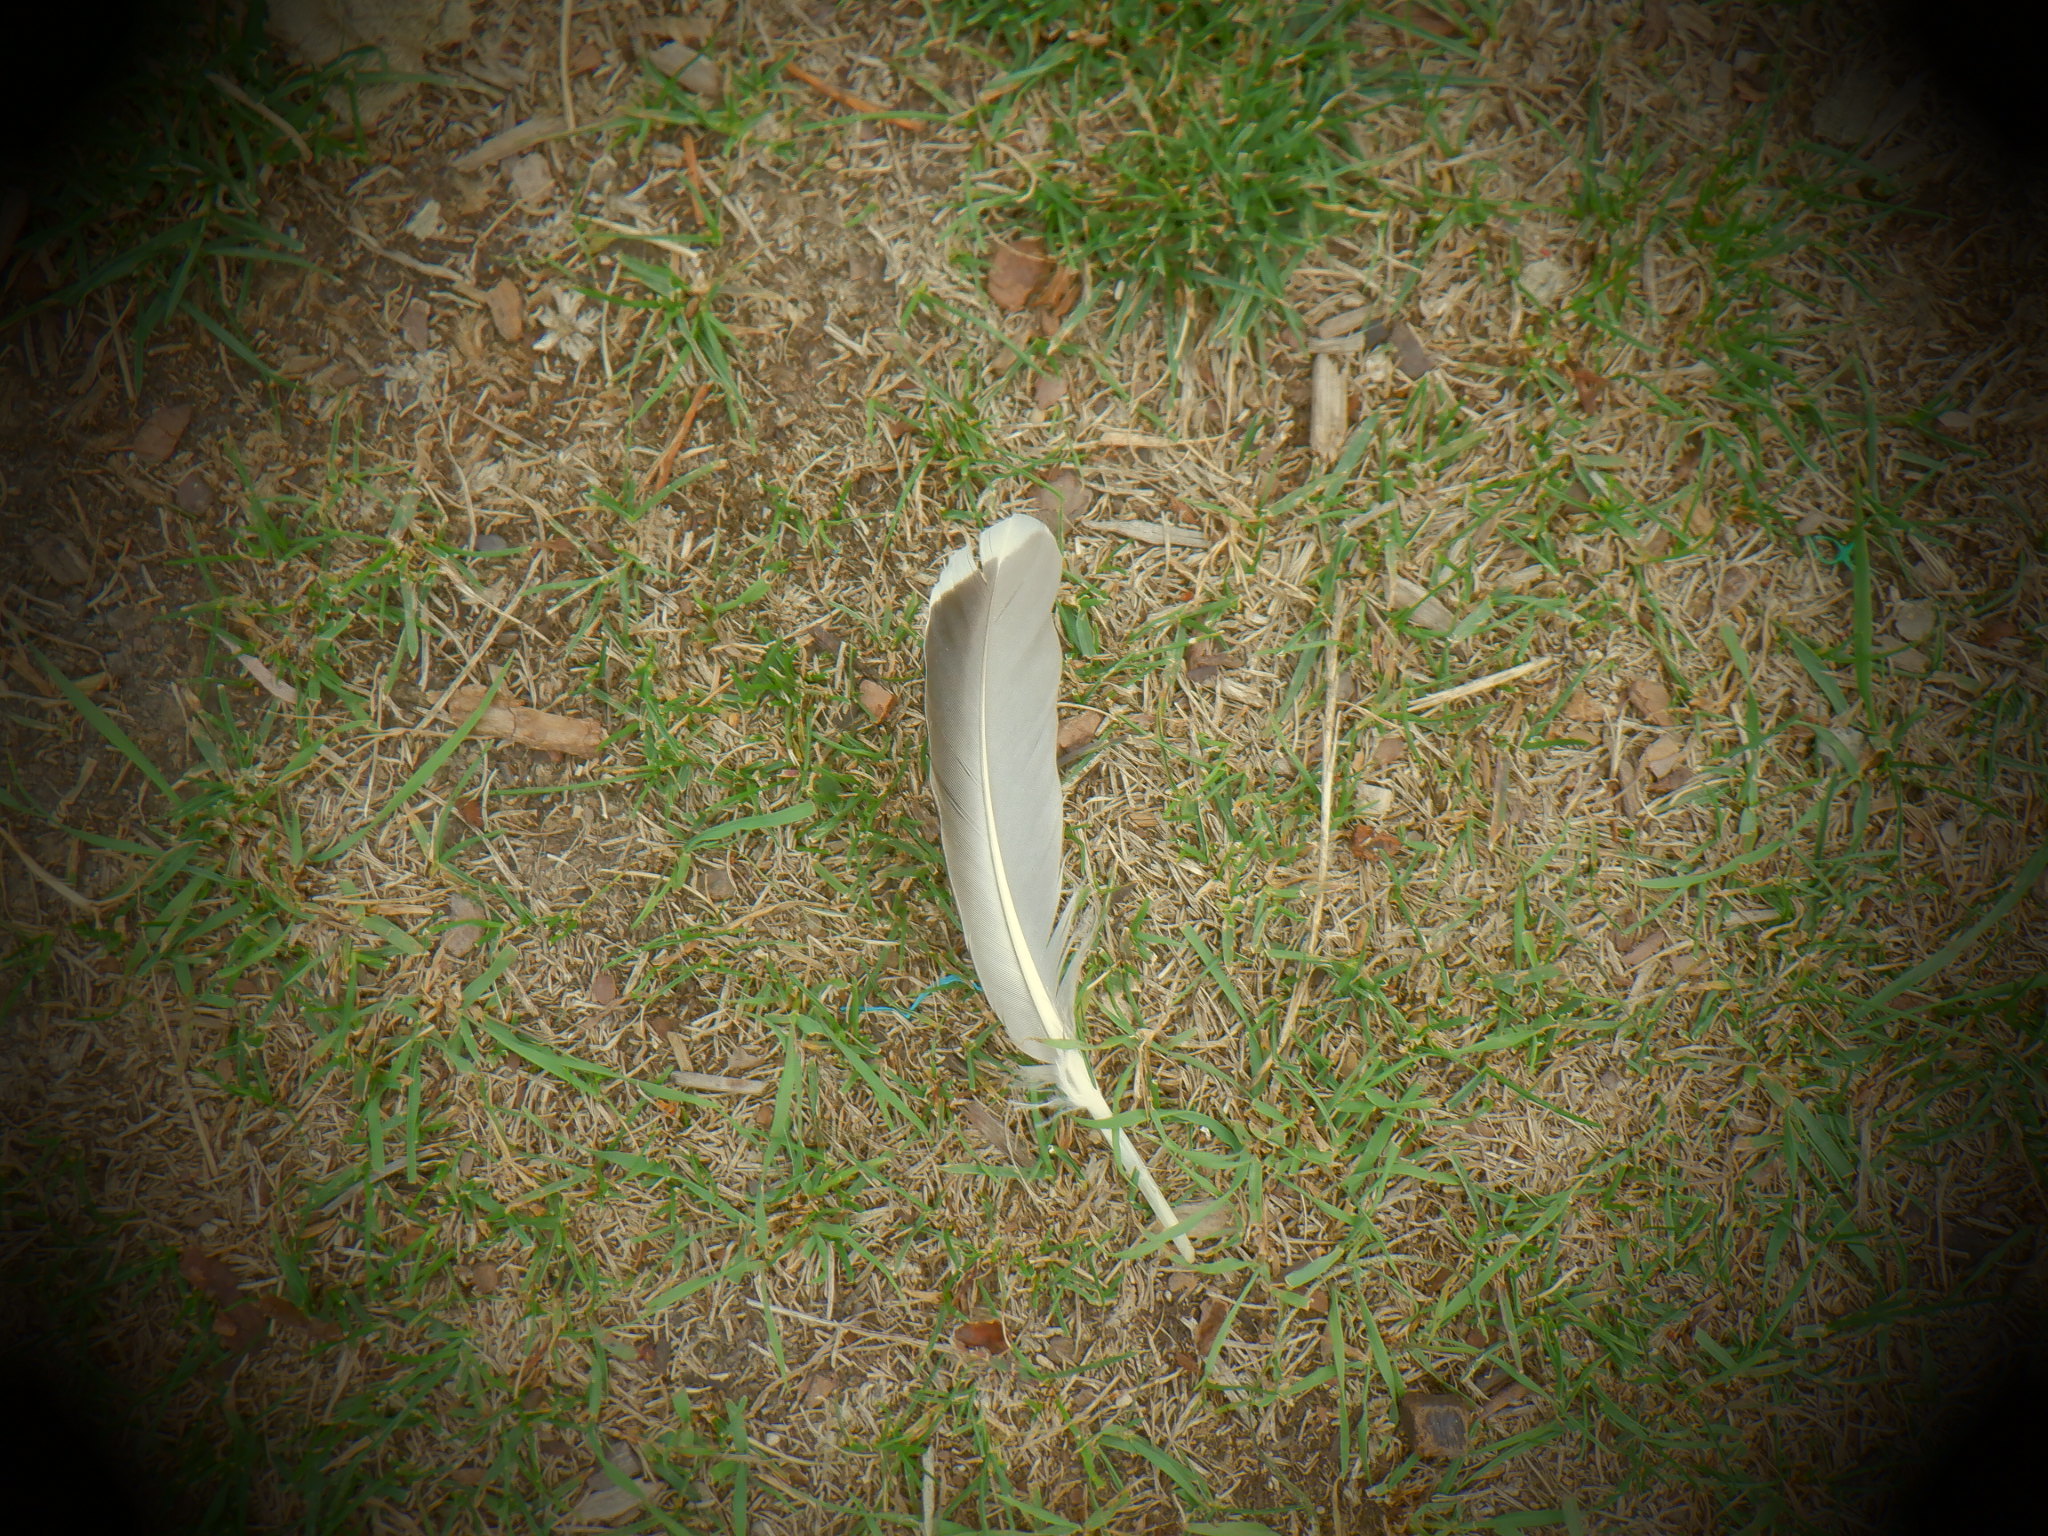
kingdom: Animalia
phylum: Chordata
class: Aves
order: Anseriformes
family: Anatidae
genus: Anas
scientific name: Anas platyrhynchos
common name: Mallard
